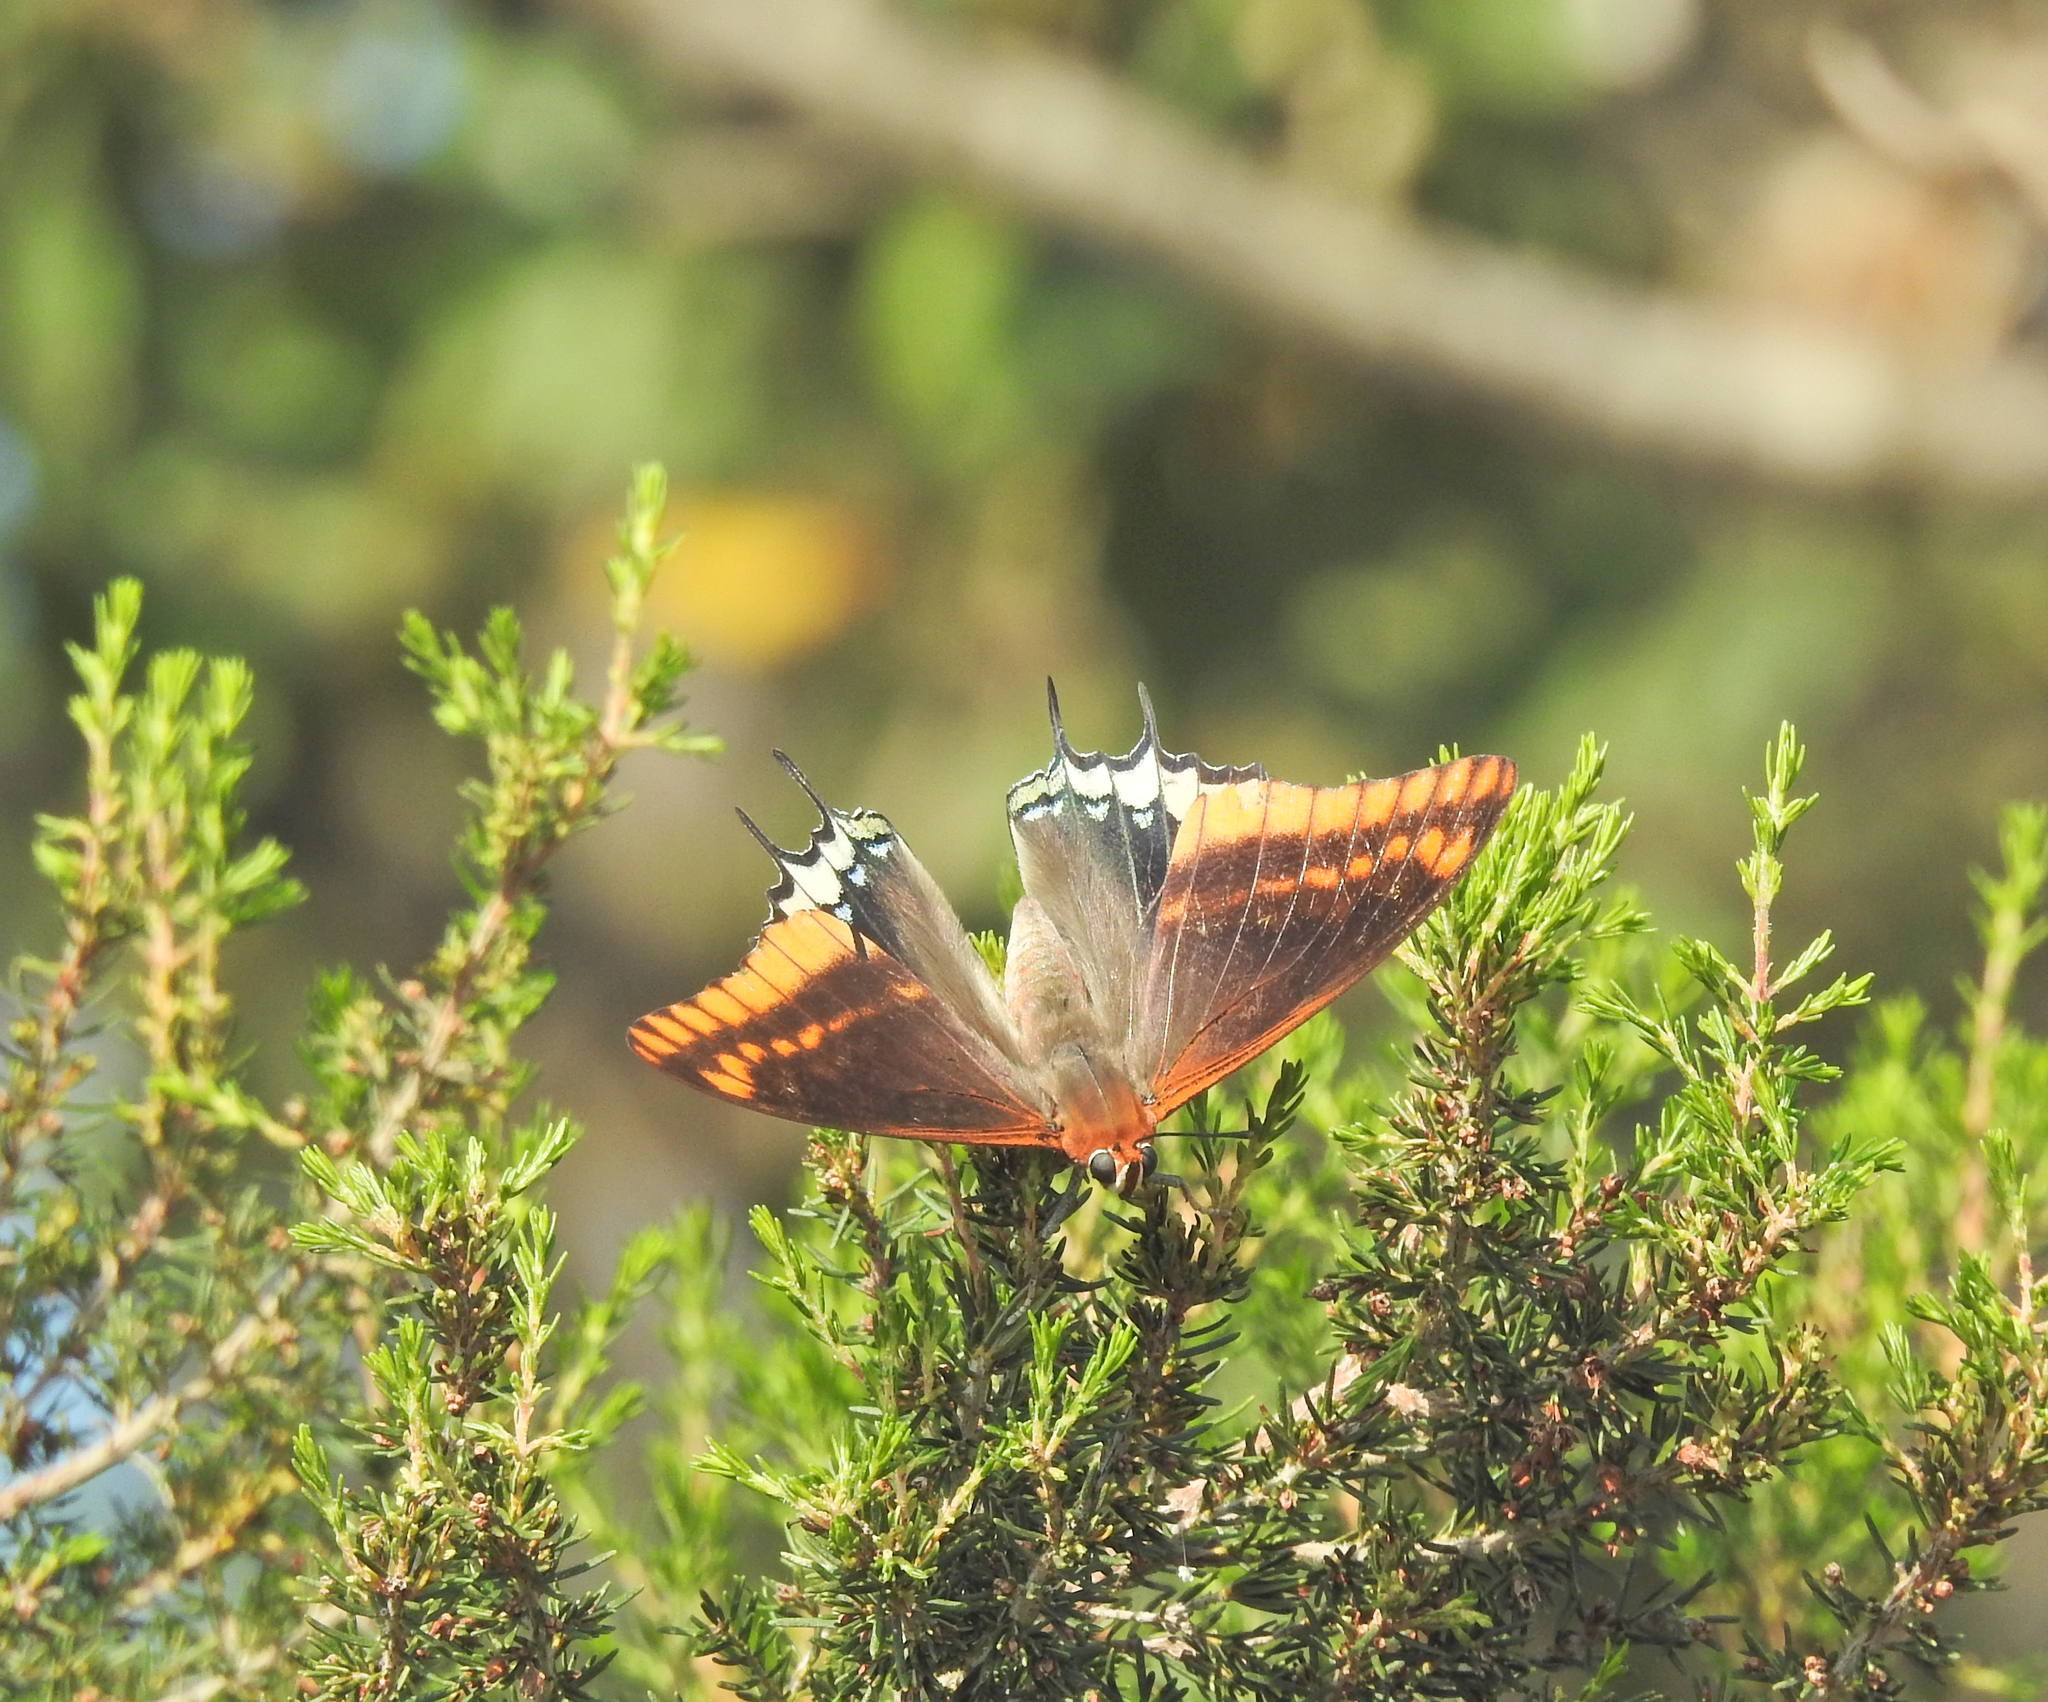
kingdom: Animalia
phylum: Arthropoda
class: Insecta
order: Orthoptera
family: Acrididae
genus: Locusta
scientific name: Locusta migratoria
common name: Migratory locust
